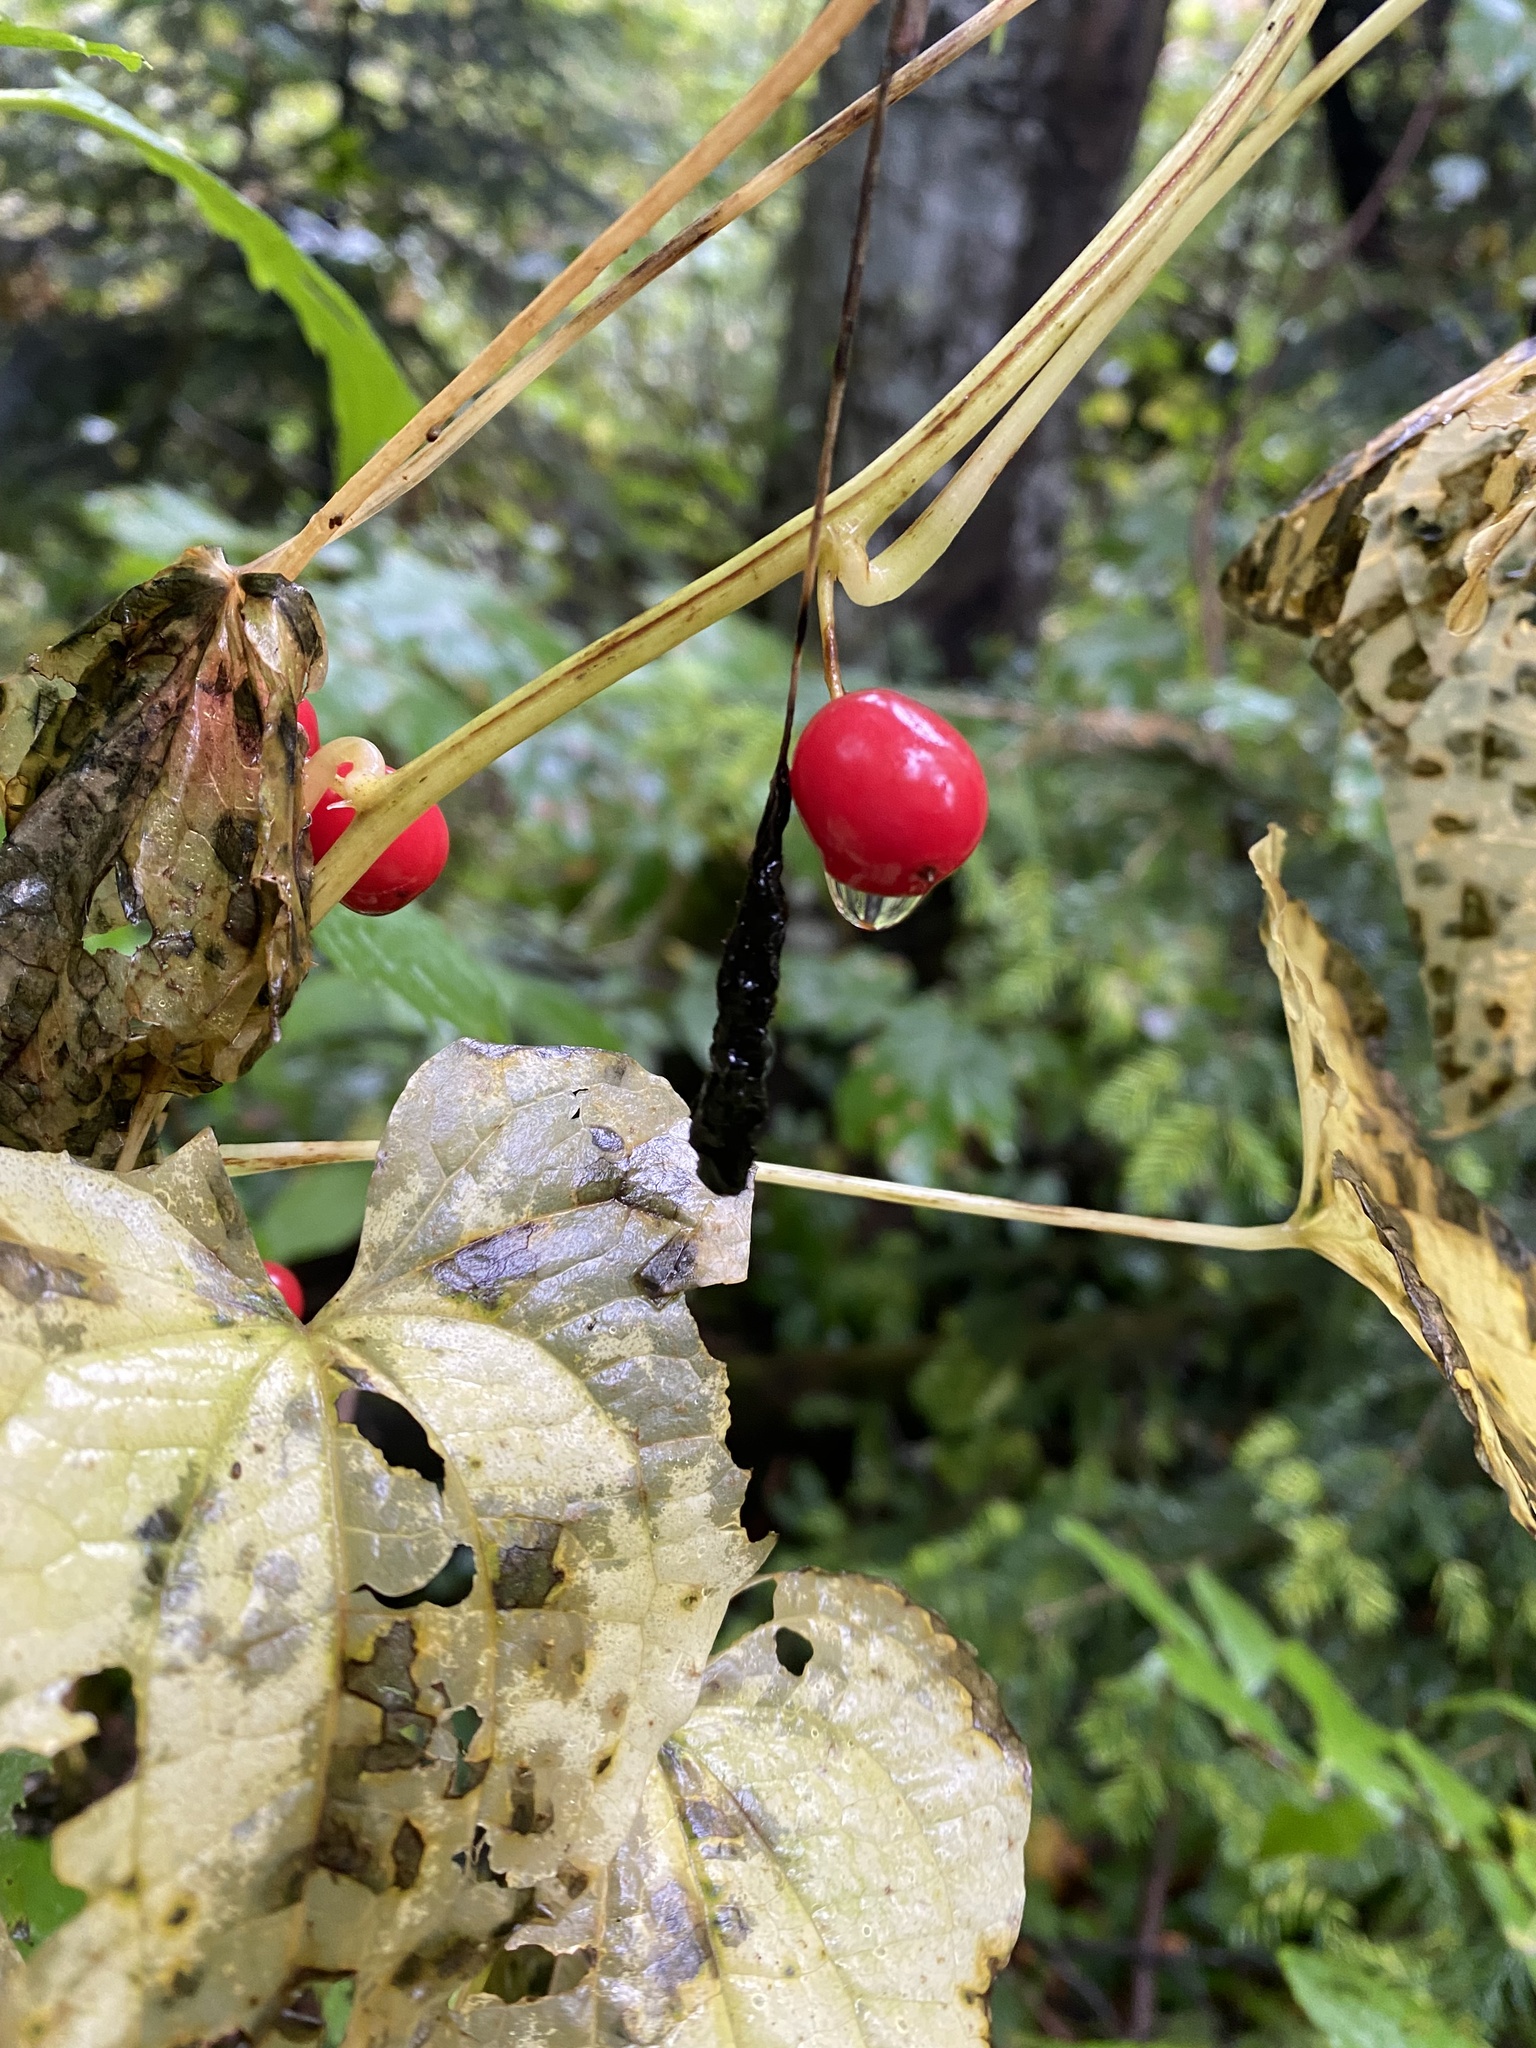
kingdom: Plantae
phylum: Tracheophyta
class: Liliopsida
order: Dioscoreales
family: Dioscoreaceae
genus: Dioscorea
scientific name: Dioscorea communis
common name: Black-bindweed
